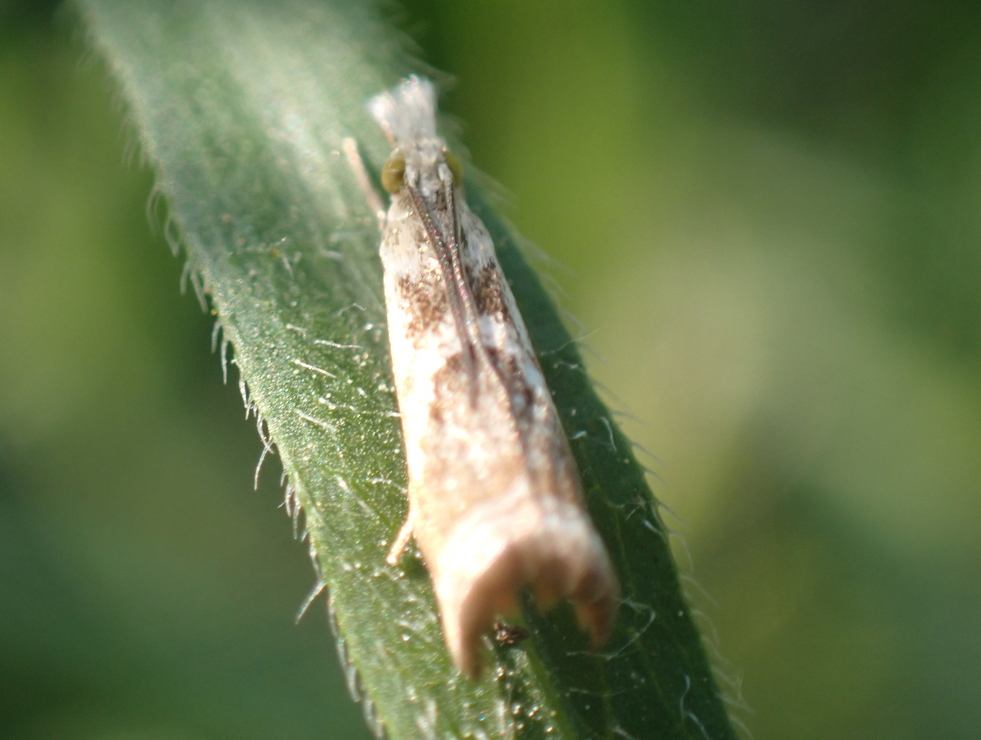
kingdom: Animalia
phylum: Arthropoda
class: Insecta
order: Lepidoptera
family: Crambidae
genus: Microcrambus
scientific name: Microcrambus elegans
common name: Elegant grass-veneer
